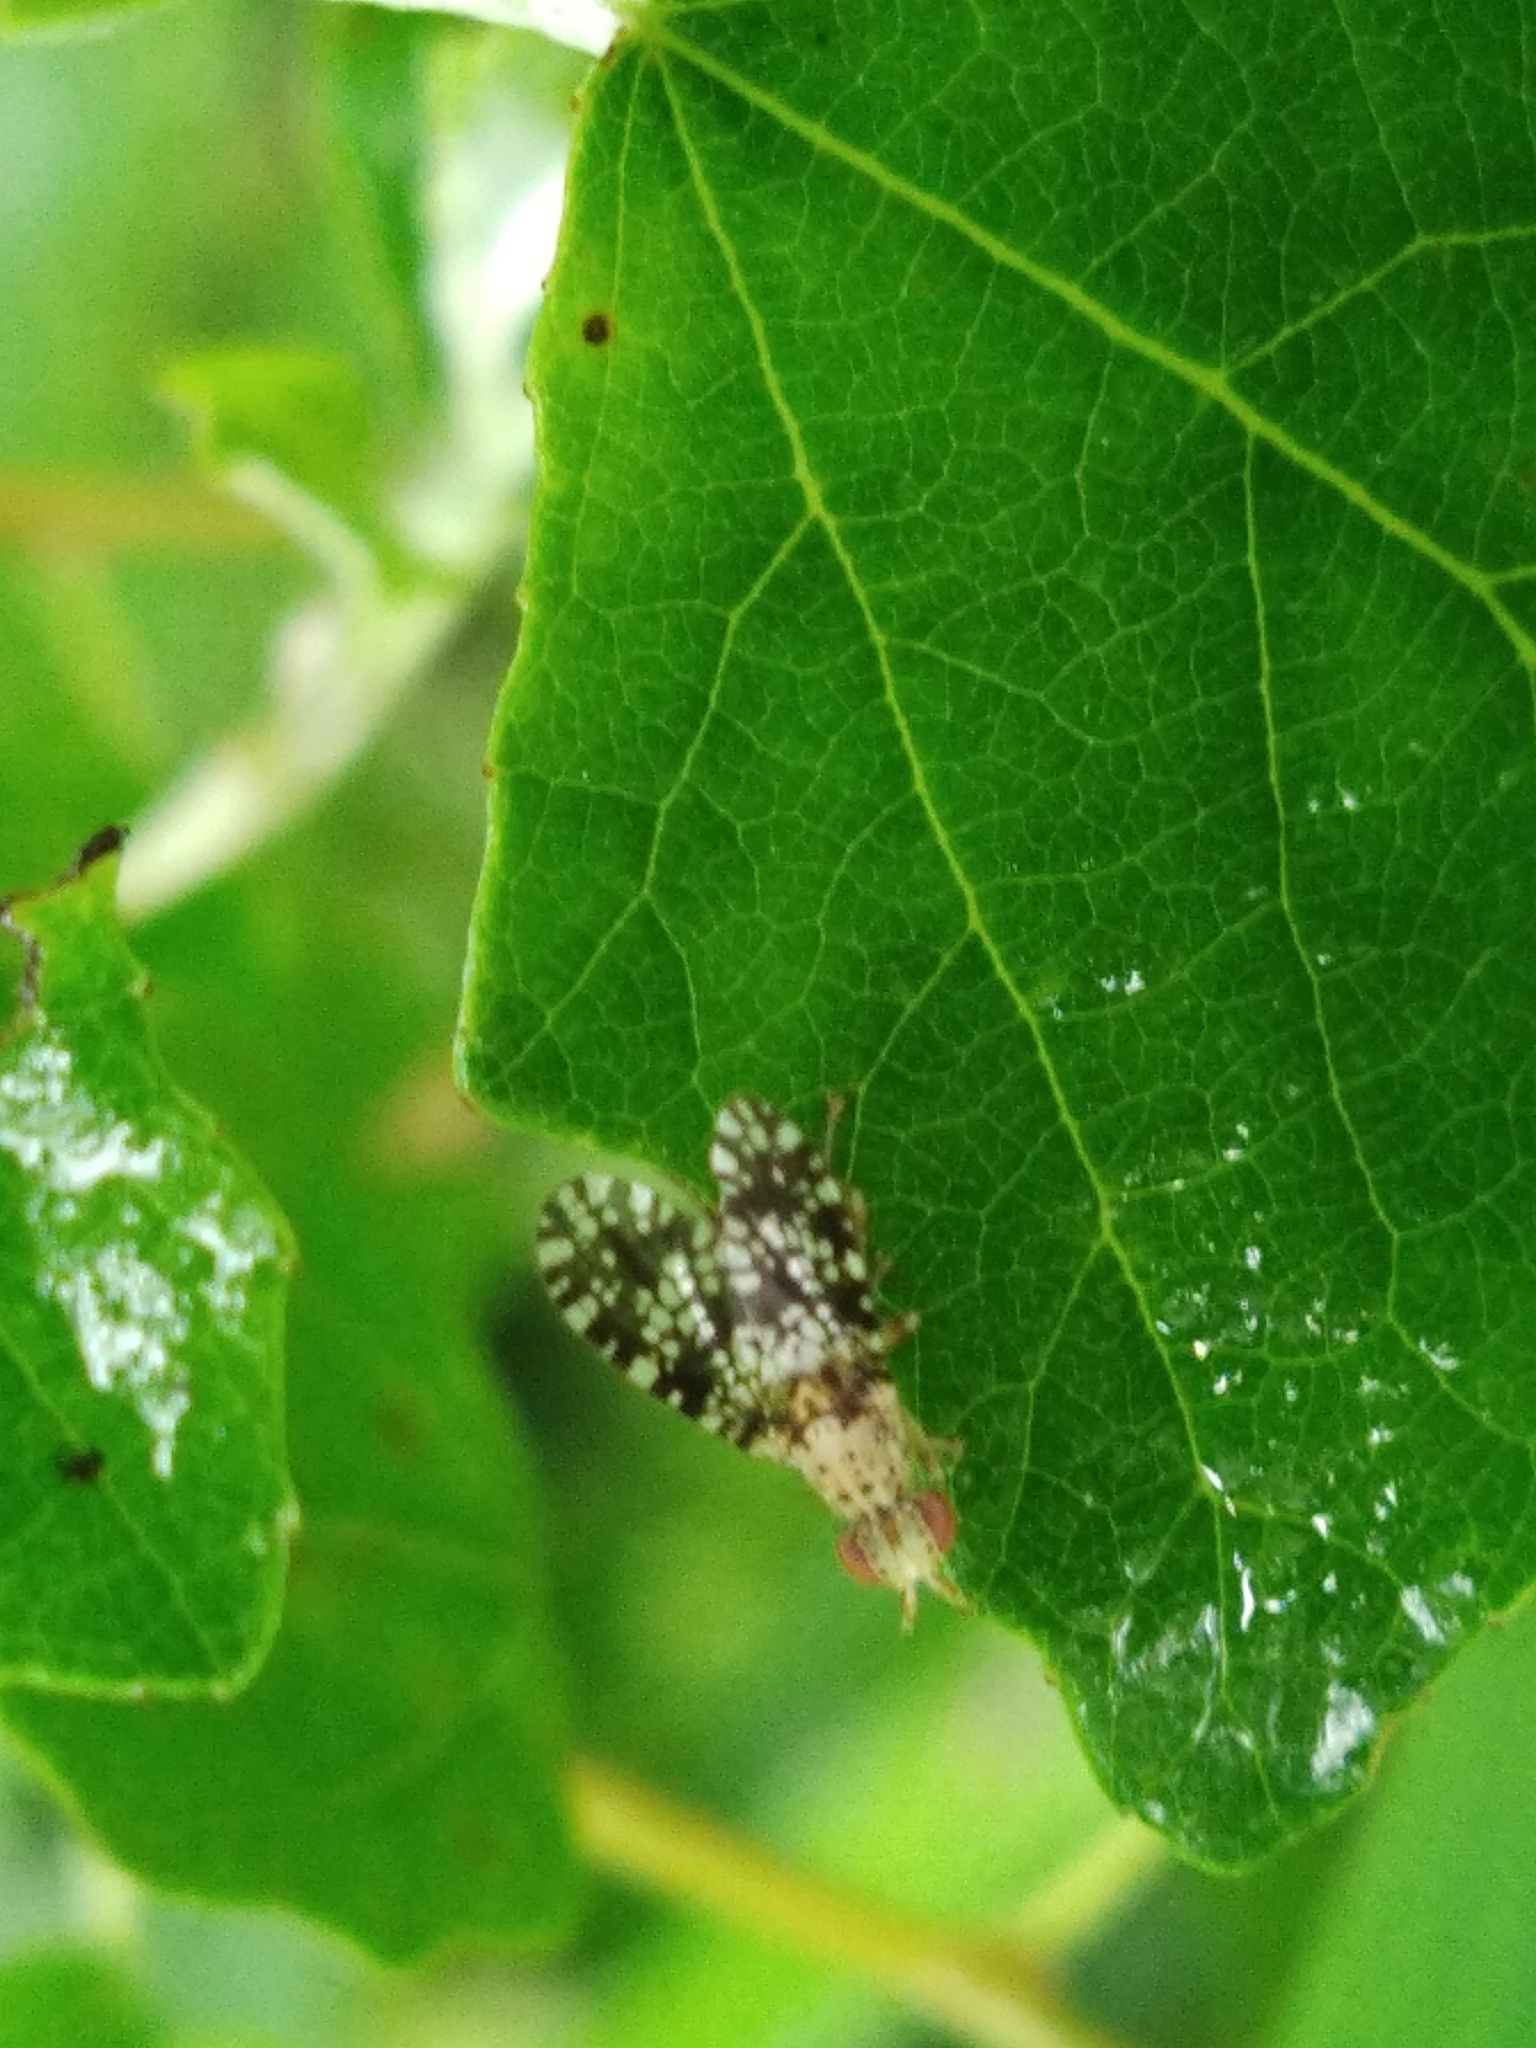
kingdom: Animalia
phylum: Arthropoda
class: Insecta
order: Diptera
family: Sciomyzidae
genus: Trypetoptera
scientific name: Trypetoptera punctulata
